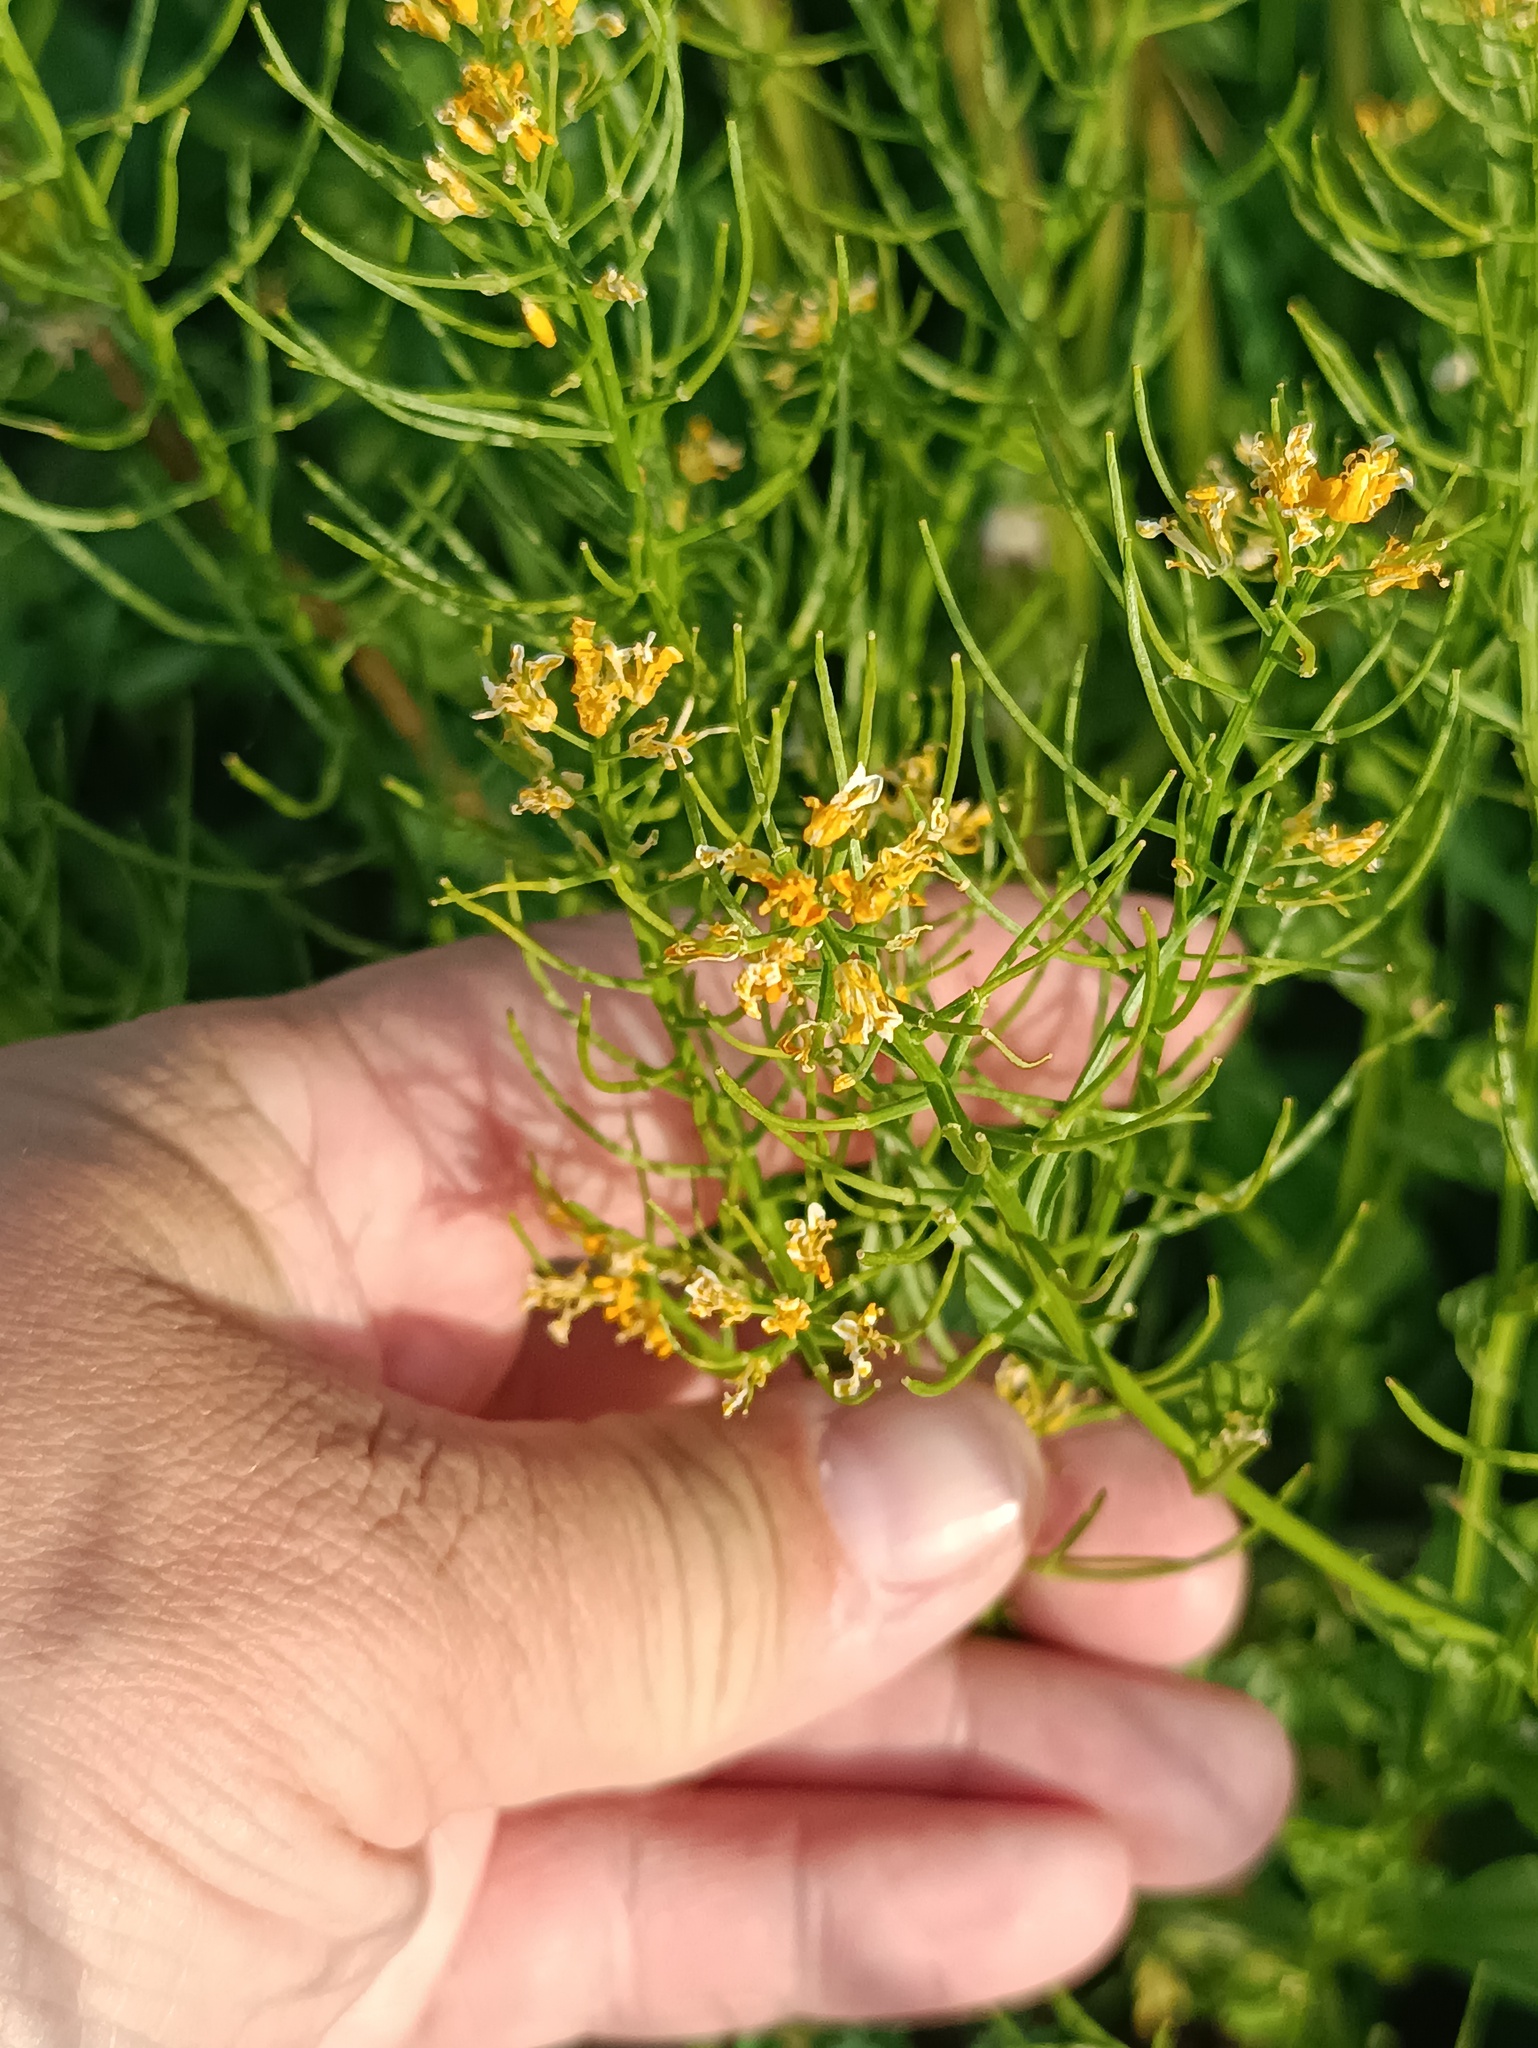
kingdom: Plantae
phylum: Tracheophyta
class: Magnoliopsida
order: Brassicales
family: Brassicaceae
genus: Barbarea
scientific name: Barbarea vulgaris
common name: Cressy-greens
